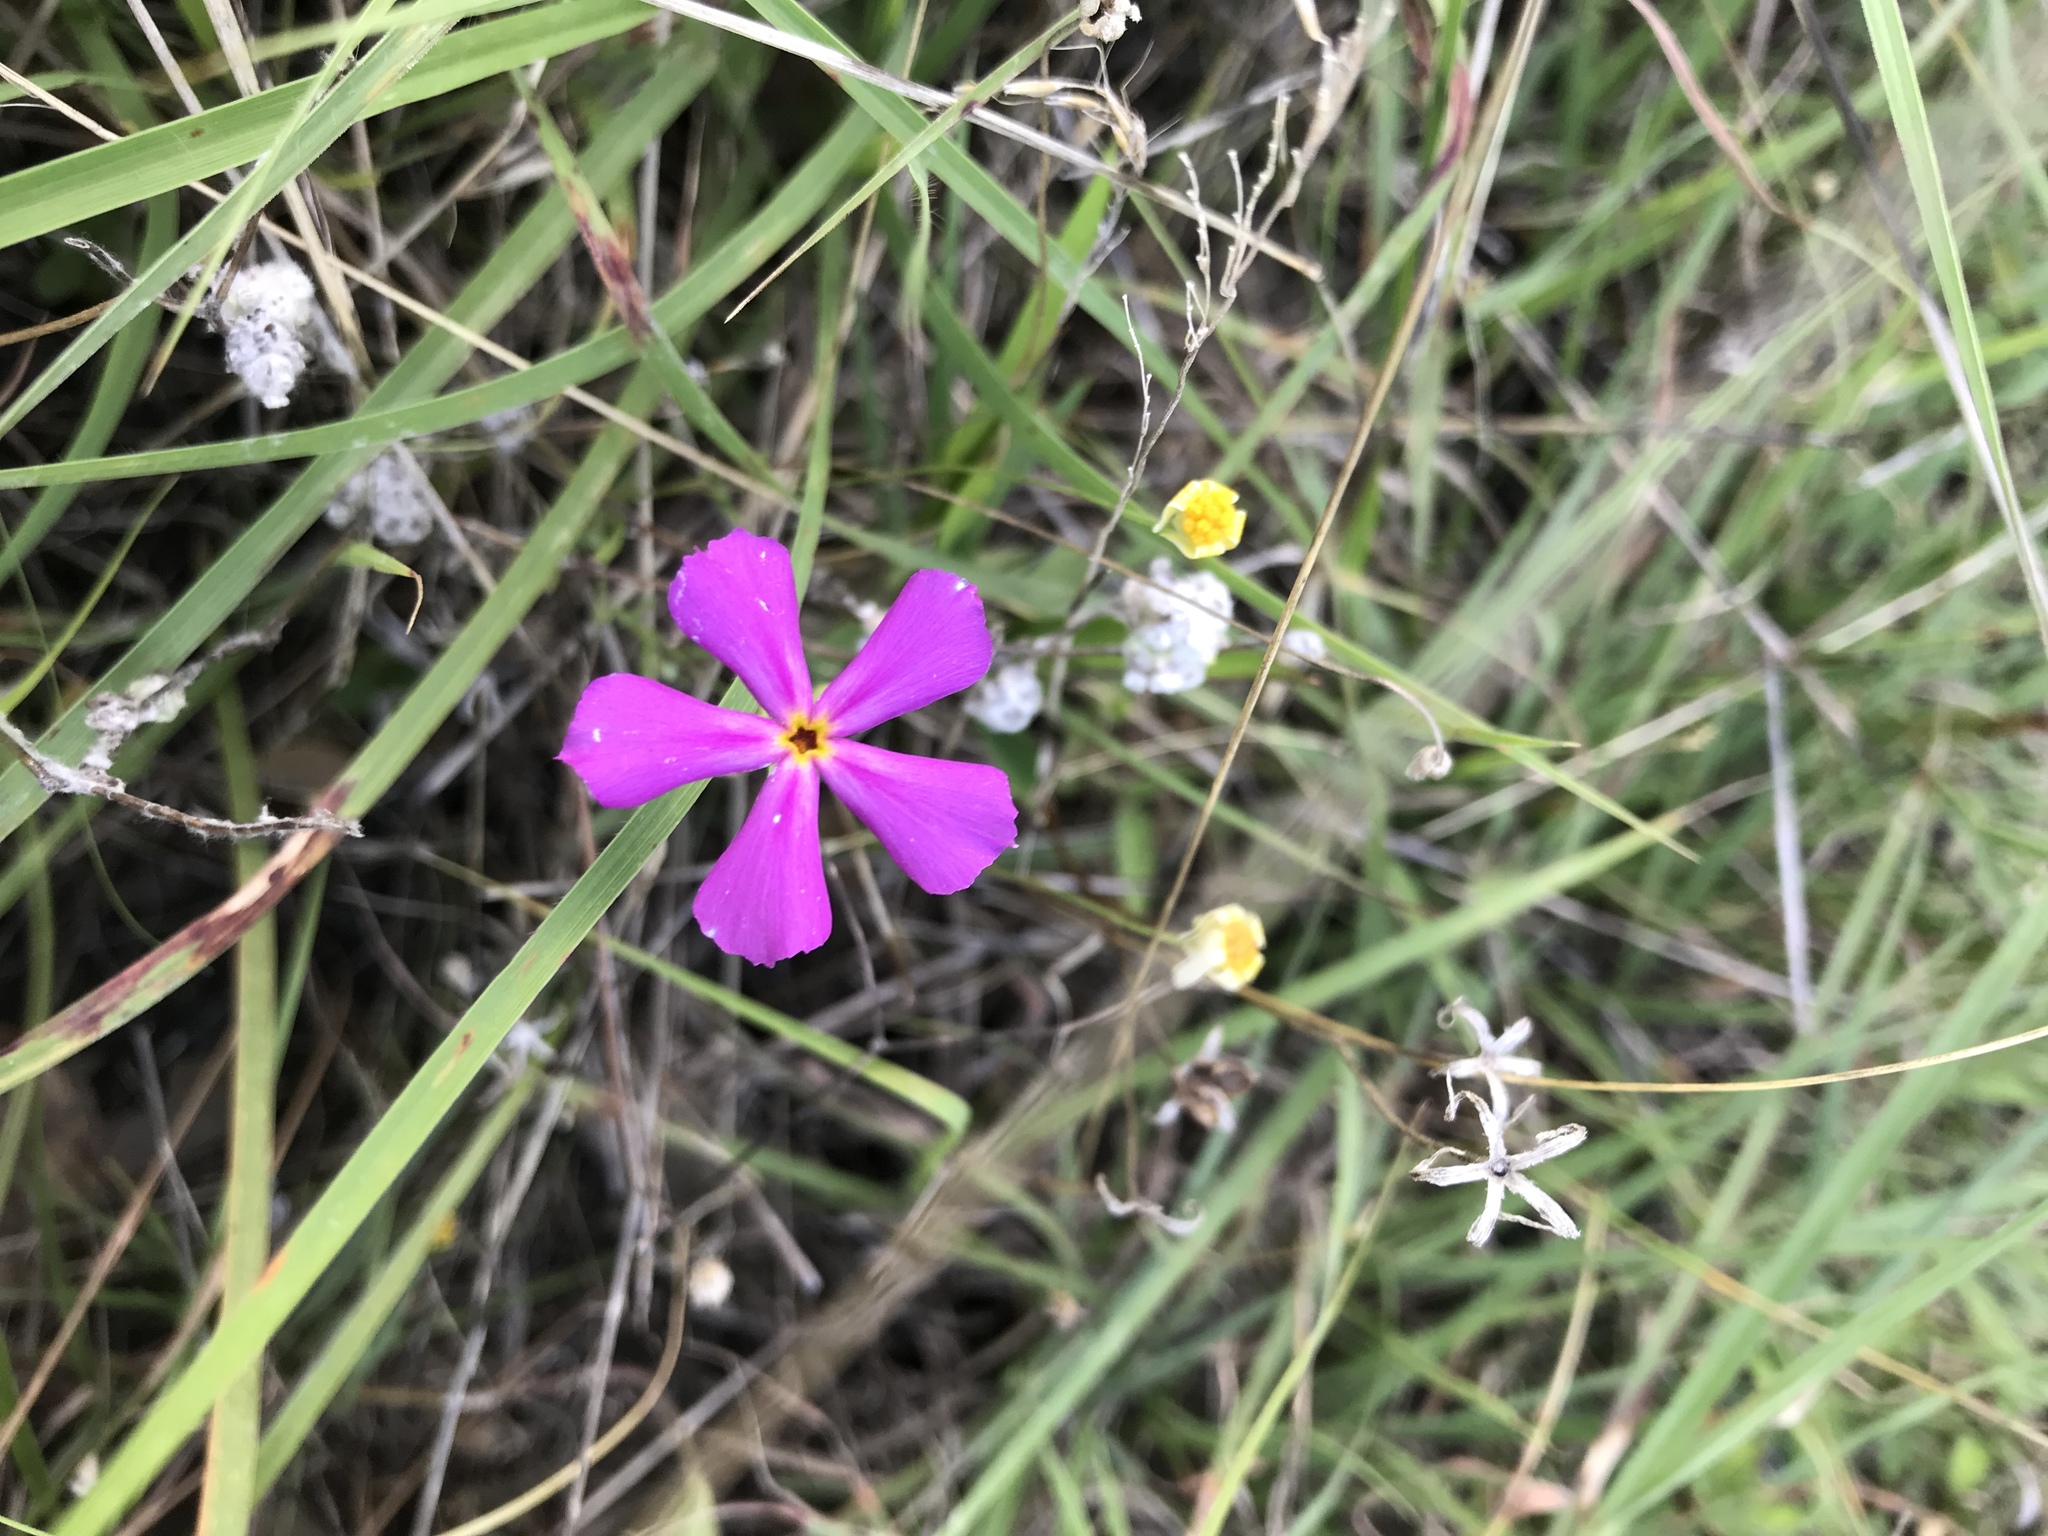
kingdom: Plantae
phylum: Tracheophyta
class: Magnoliopsida
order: Ericales
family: Polemoniaceae
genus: Phlox
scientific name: Phlox roemeriana
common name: Roemer's phlox
